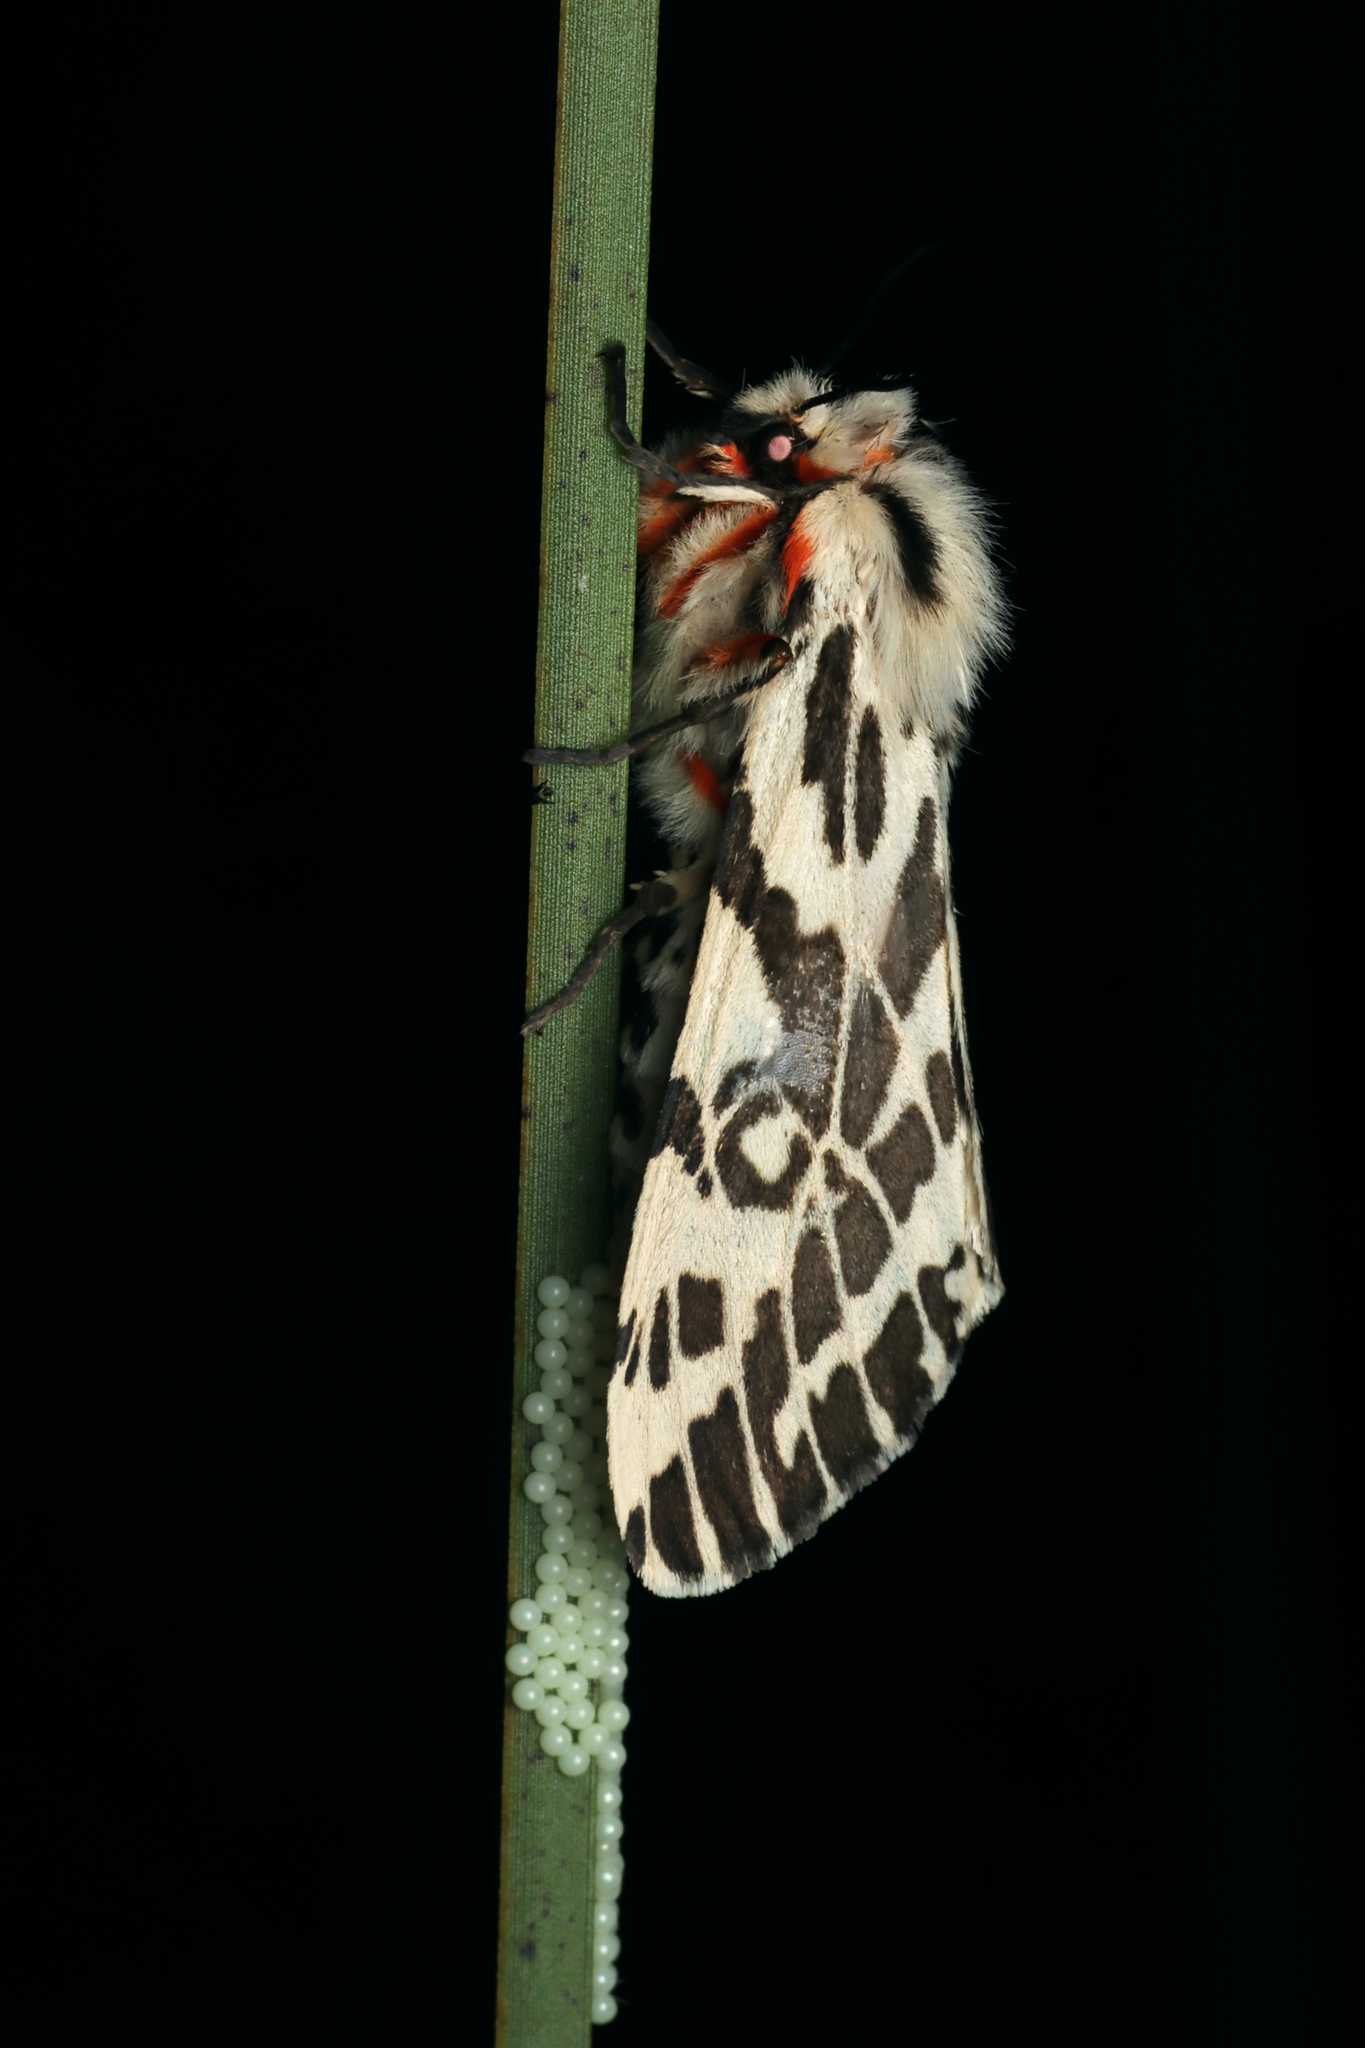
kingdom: Animalia
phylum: Arthropoda
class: Insecta
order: Lepidoptera
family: Erebidae
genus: Ardices
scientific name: Ardices glatignyi
